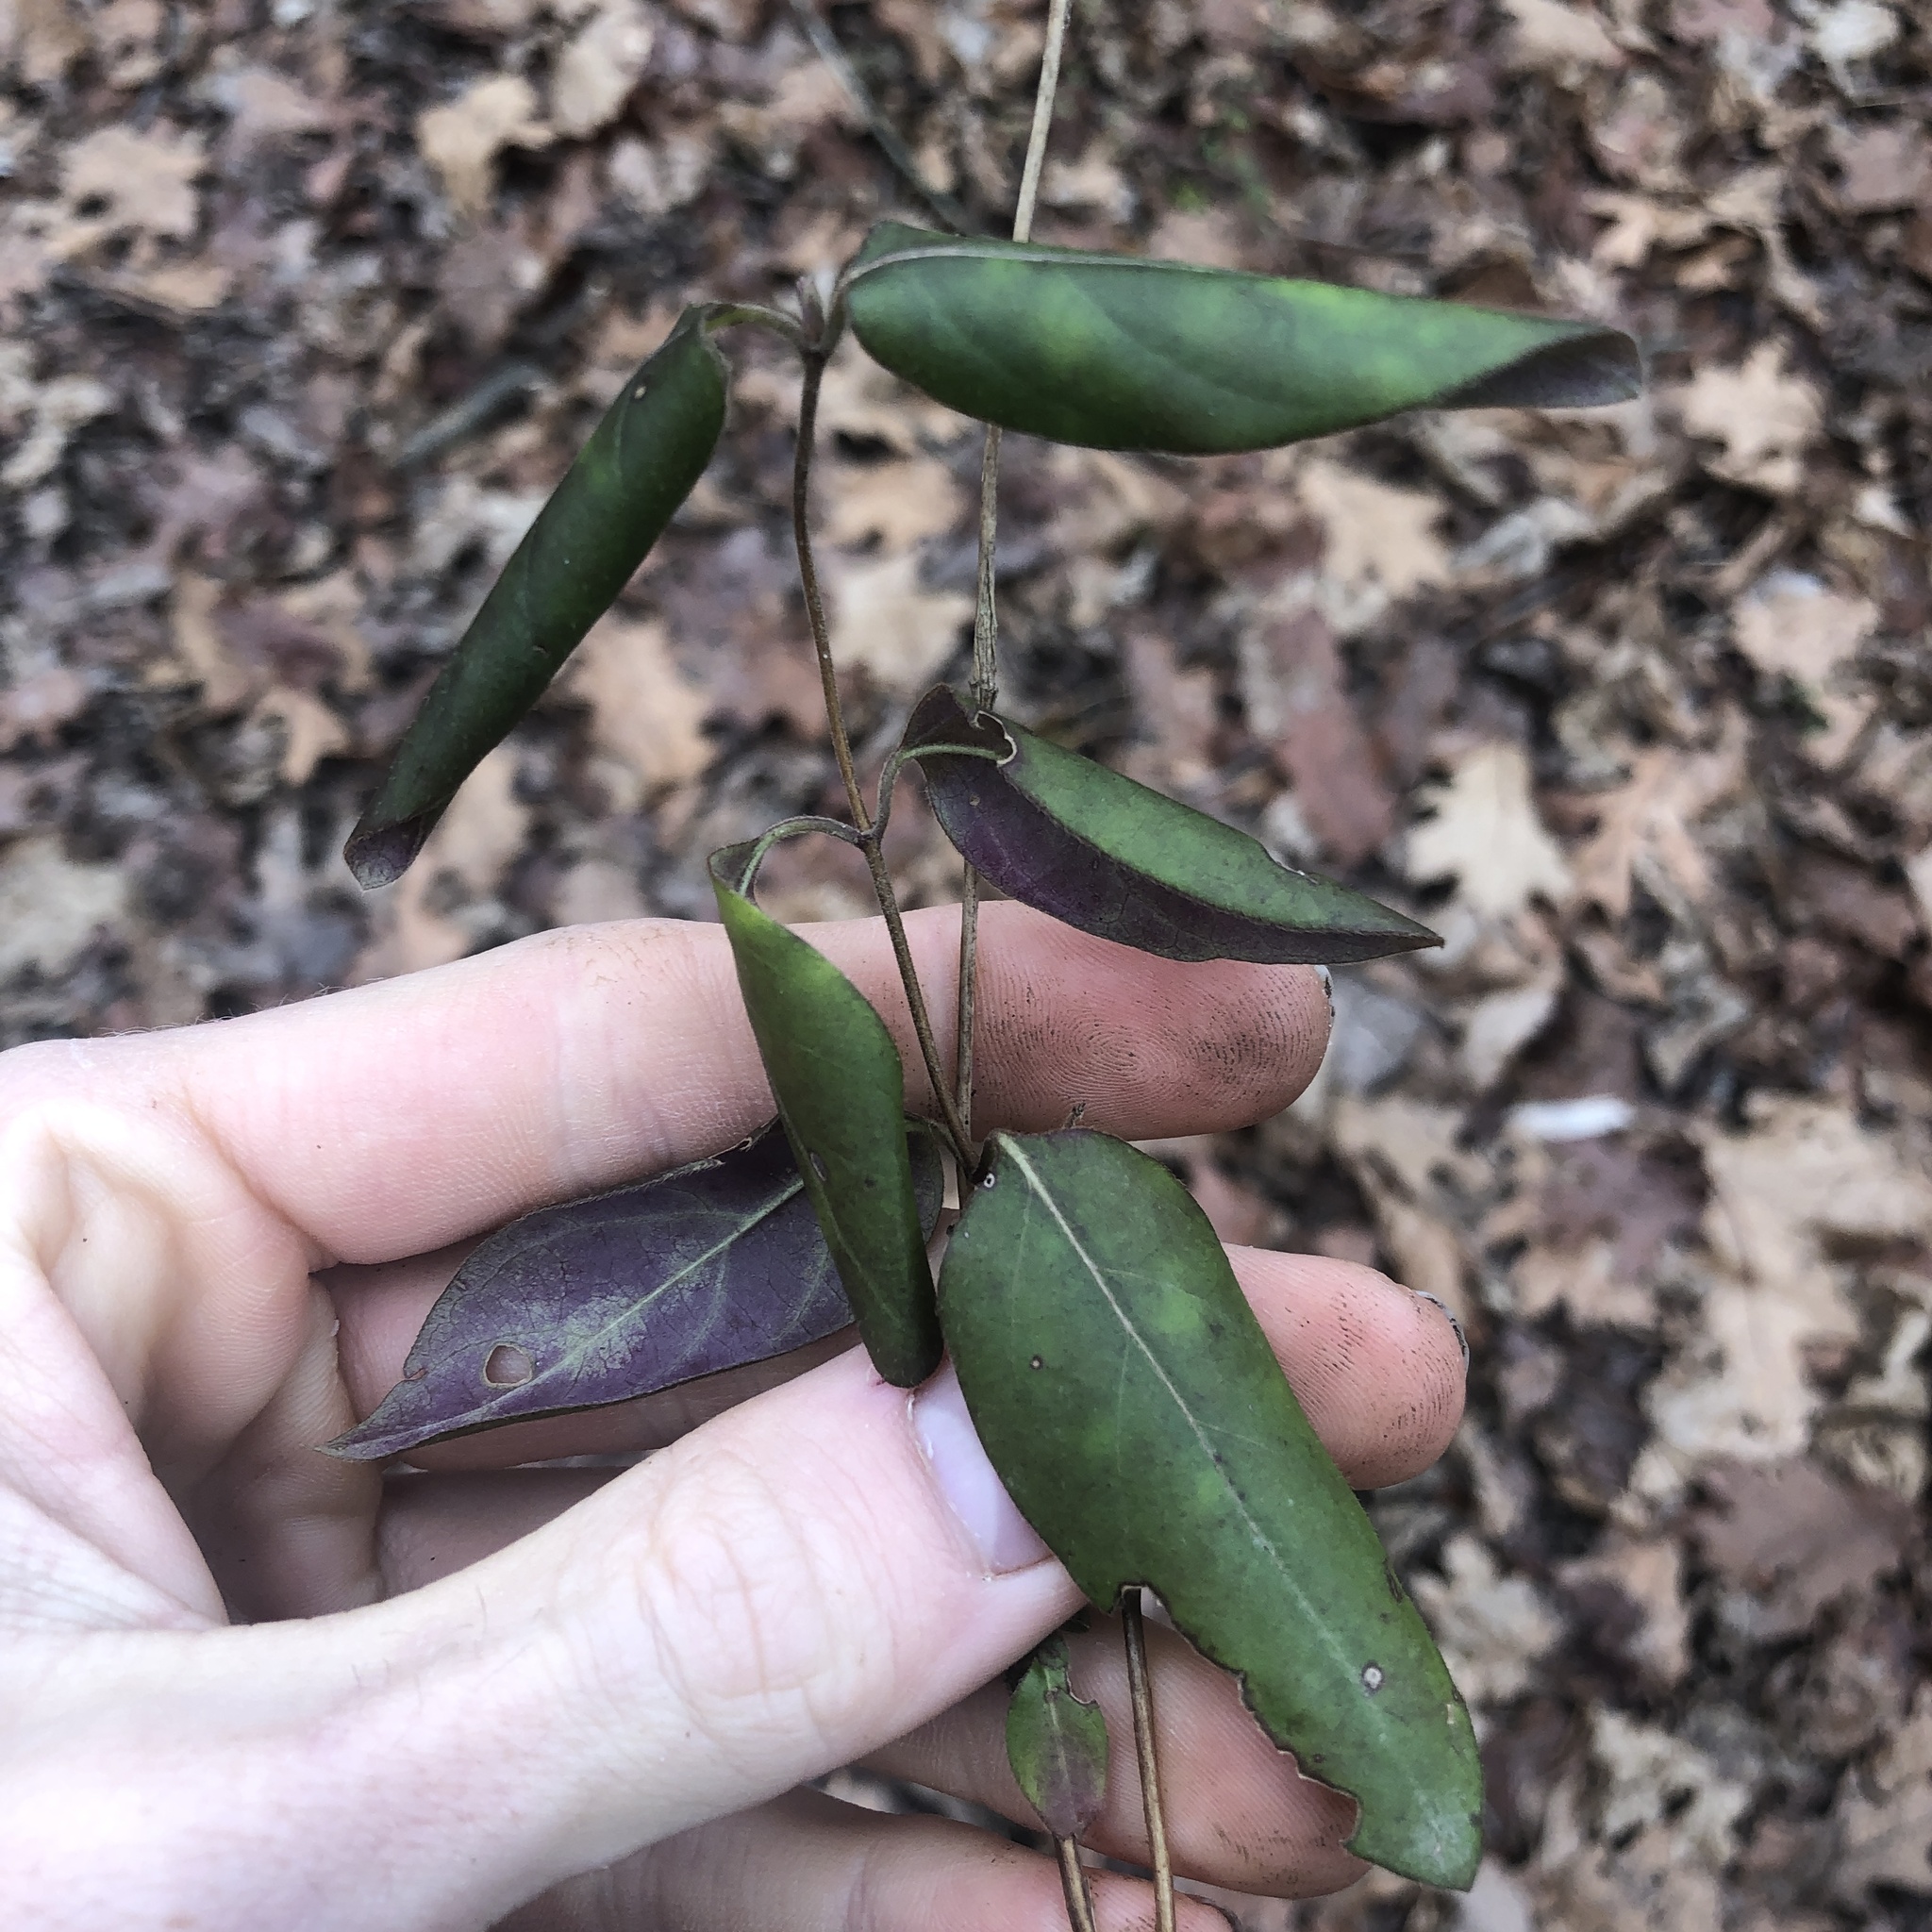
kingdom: Plantae
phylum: Tracheophyta
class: Magnoliopsida
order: Dipsacales
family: Caprifoliaceae
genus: Lonicera
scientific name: Lonicera japonica
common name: Japanese honeysuckle
